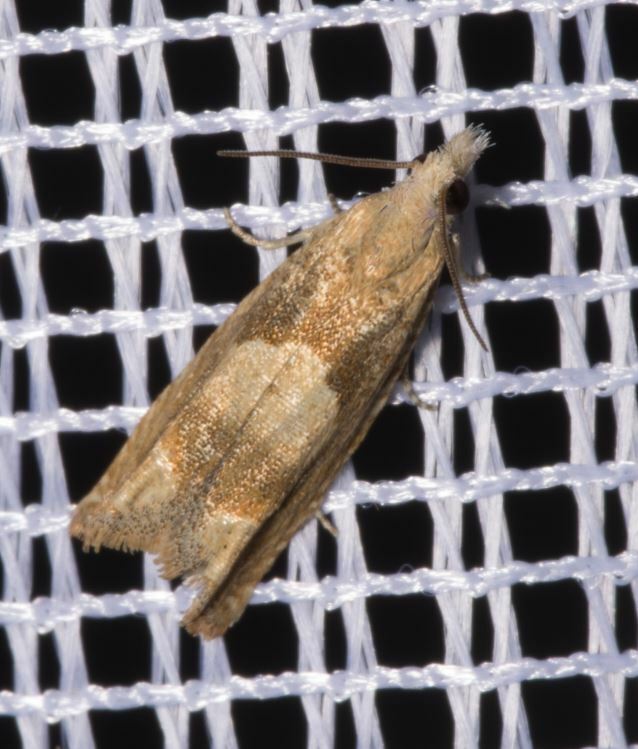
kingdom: Animalia
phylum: Arthropoda
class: Insecta
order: Lepidoptera
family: Tortricidae
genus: Eucosma
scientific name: Eucosma conterminana
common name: Pale lettuce bell
